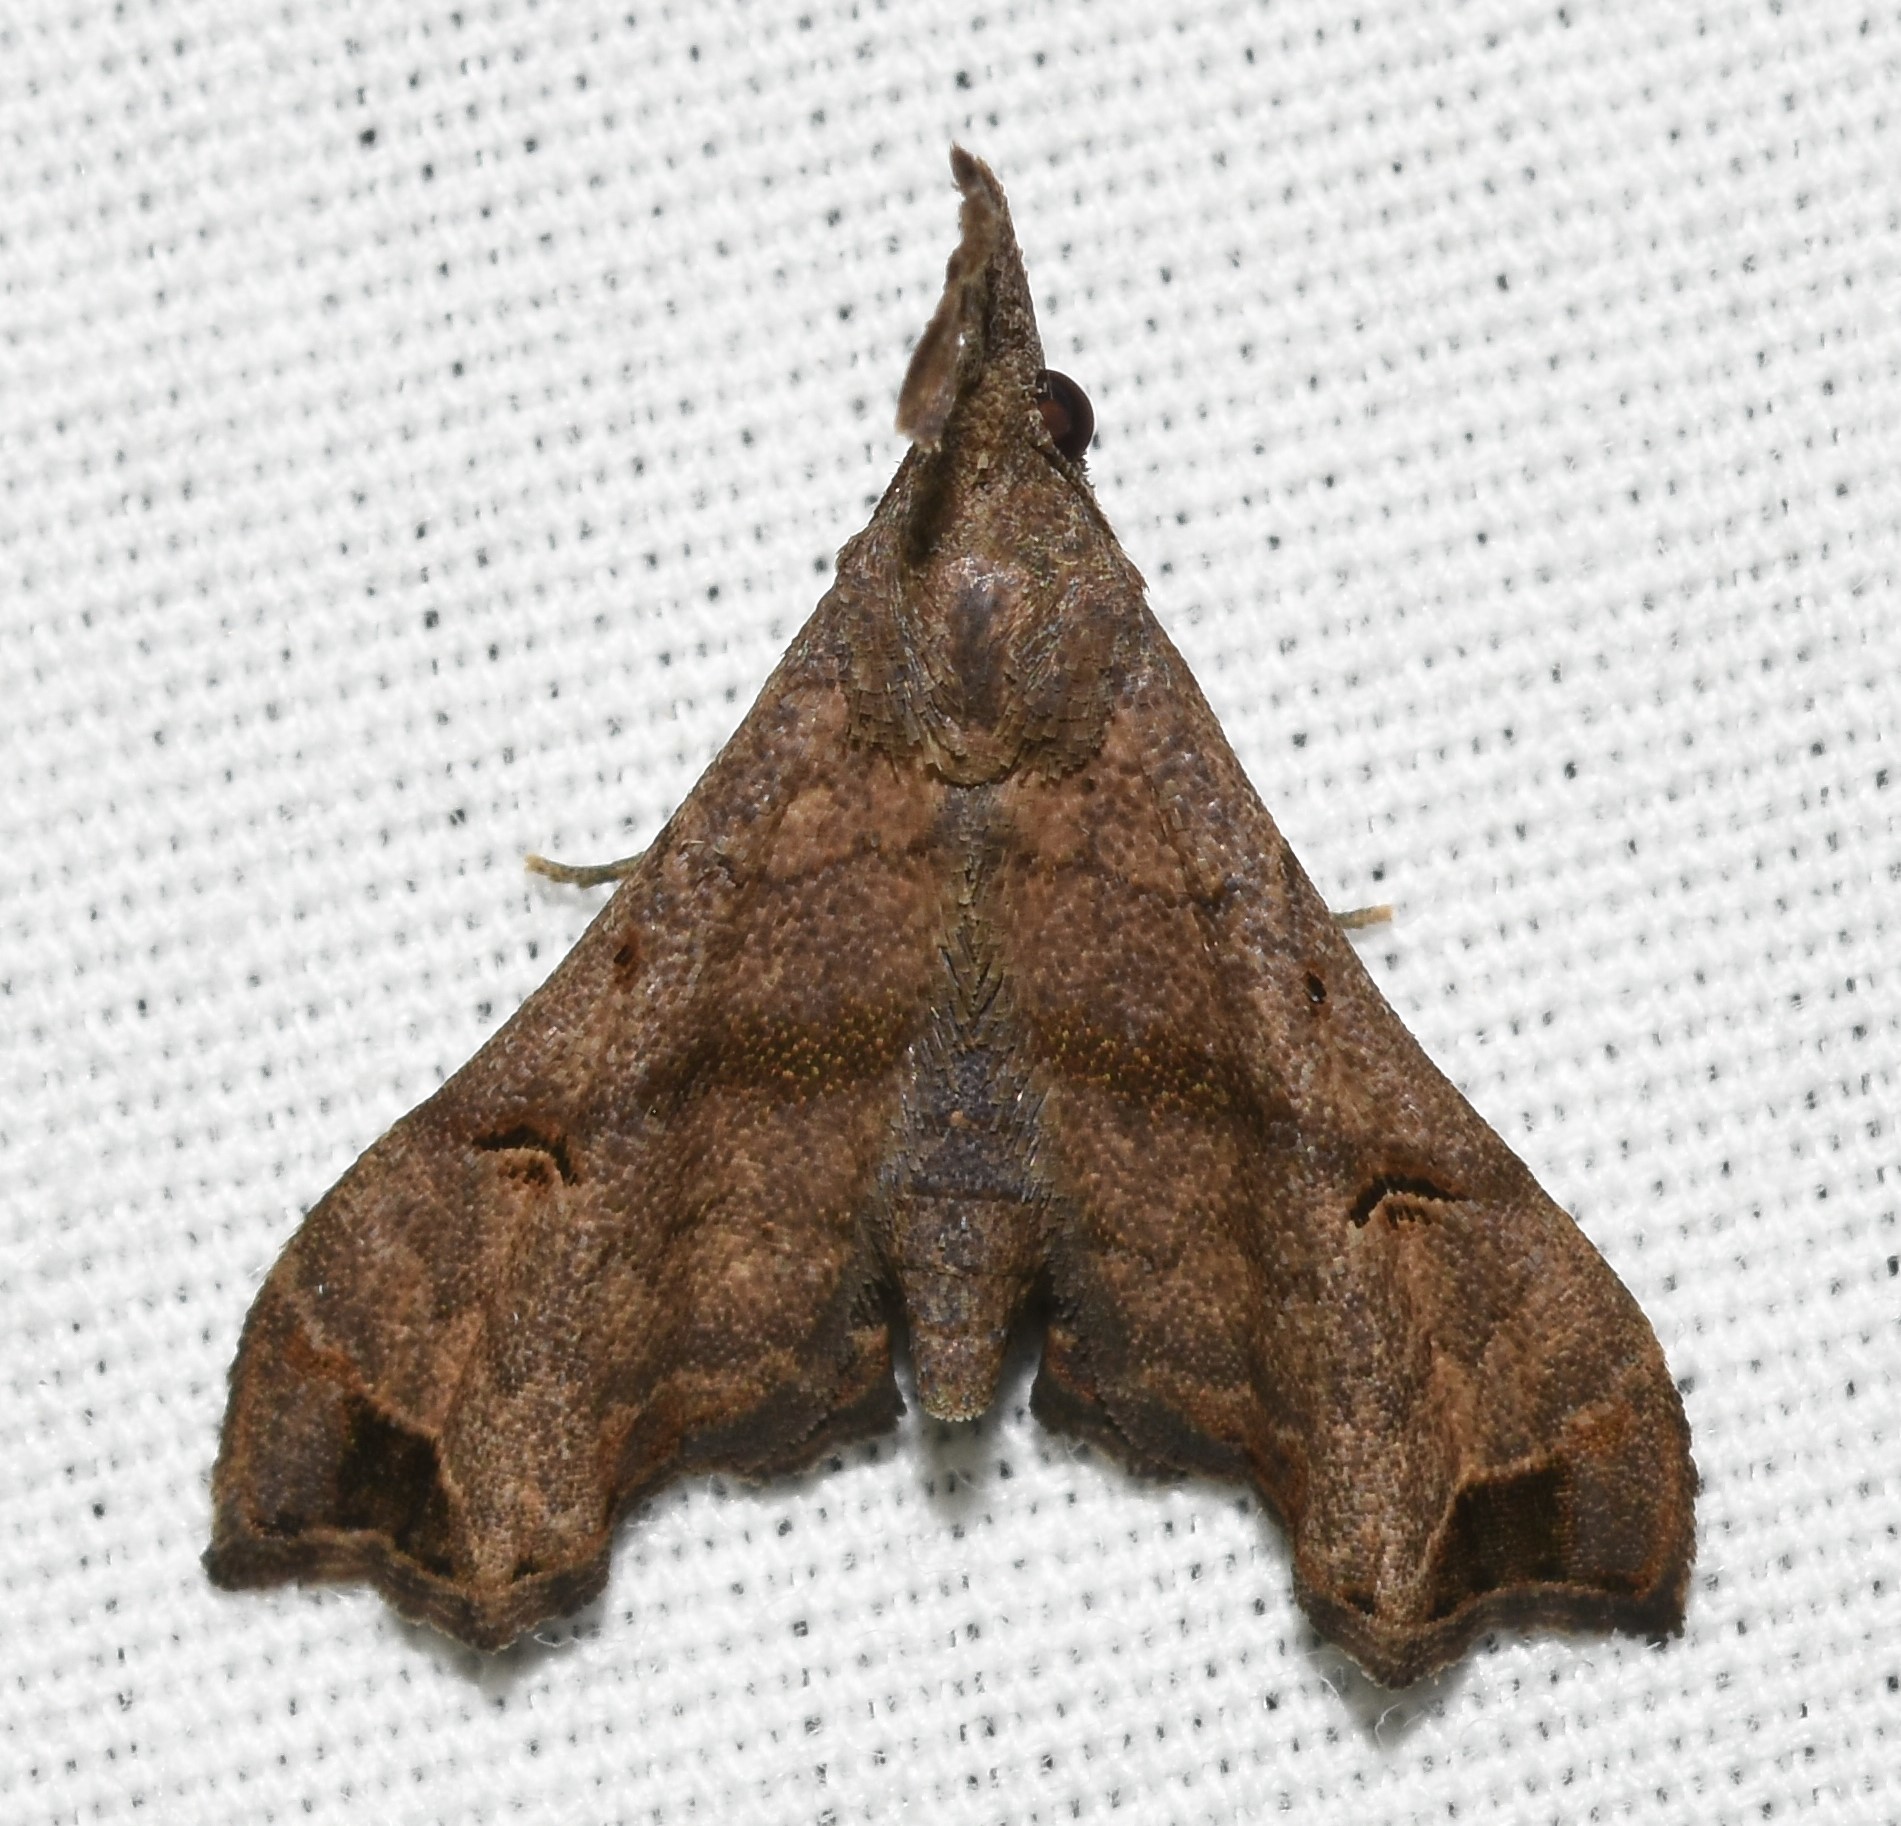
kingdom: Animalia
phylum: Arthropoda
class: Insecta
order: Lepidoptera
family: Erebidae
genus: Palthis
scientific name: Palthis asopialis
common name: Faint-spotted palthis moth
